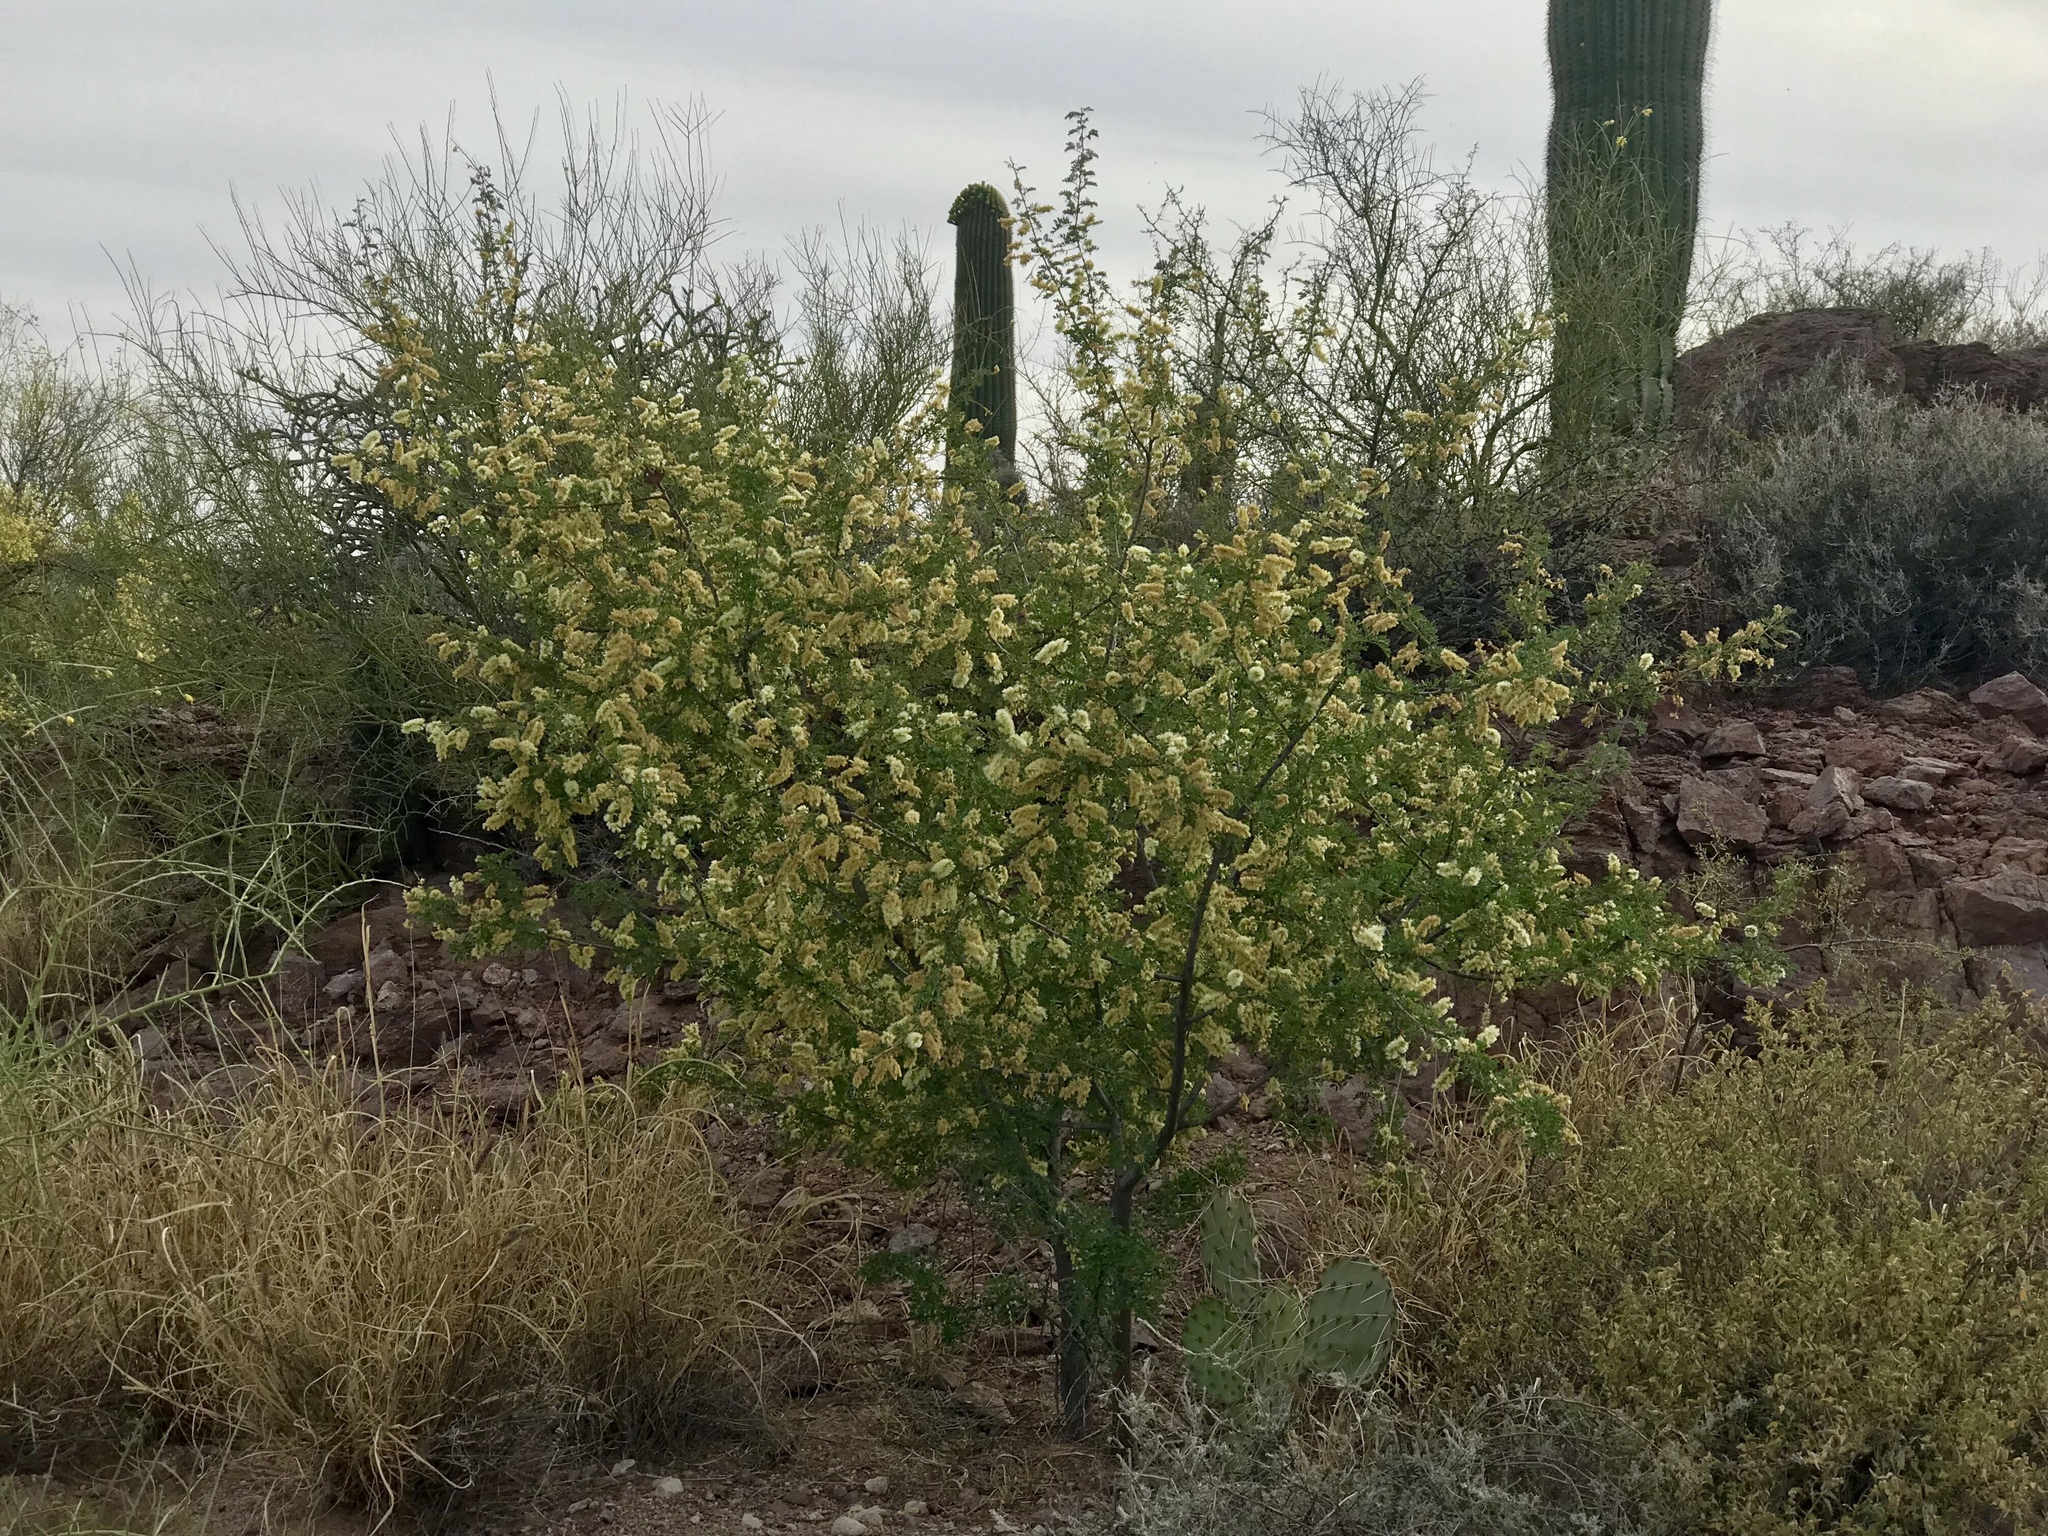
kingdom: Plantae
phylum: Tracheophyta
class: Magnoliopsida
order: Fabales
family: Fabaceae
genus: Senegalia
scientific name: Senegalia greggii
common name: Texas-mimosa
